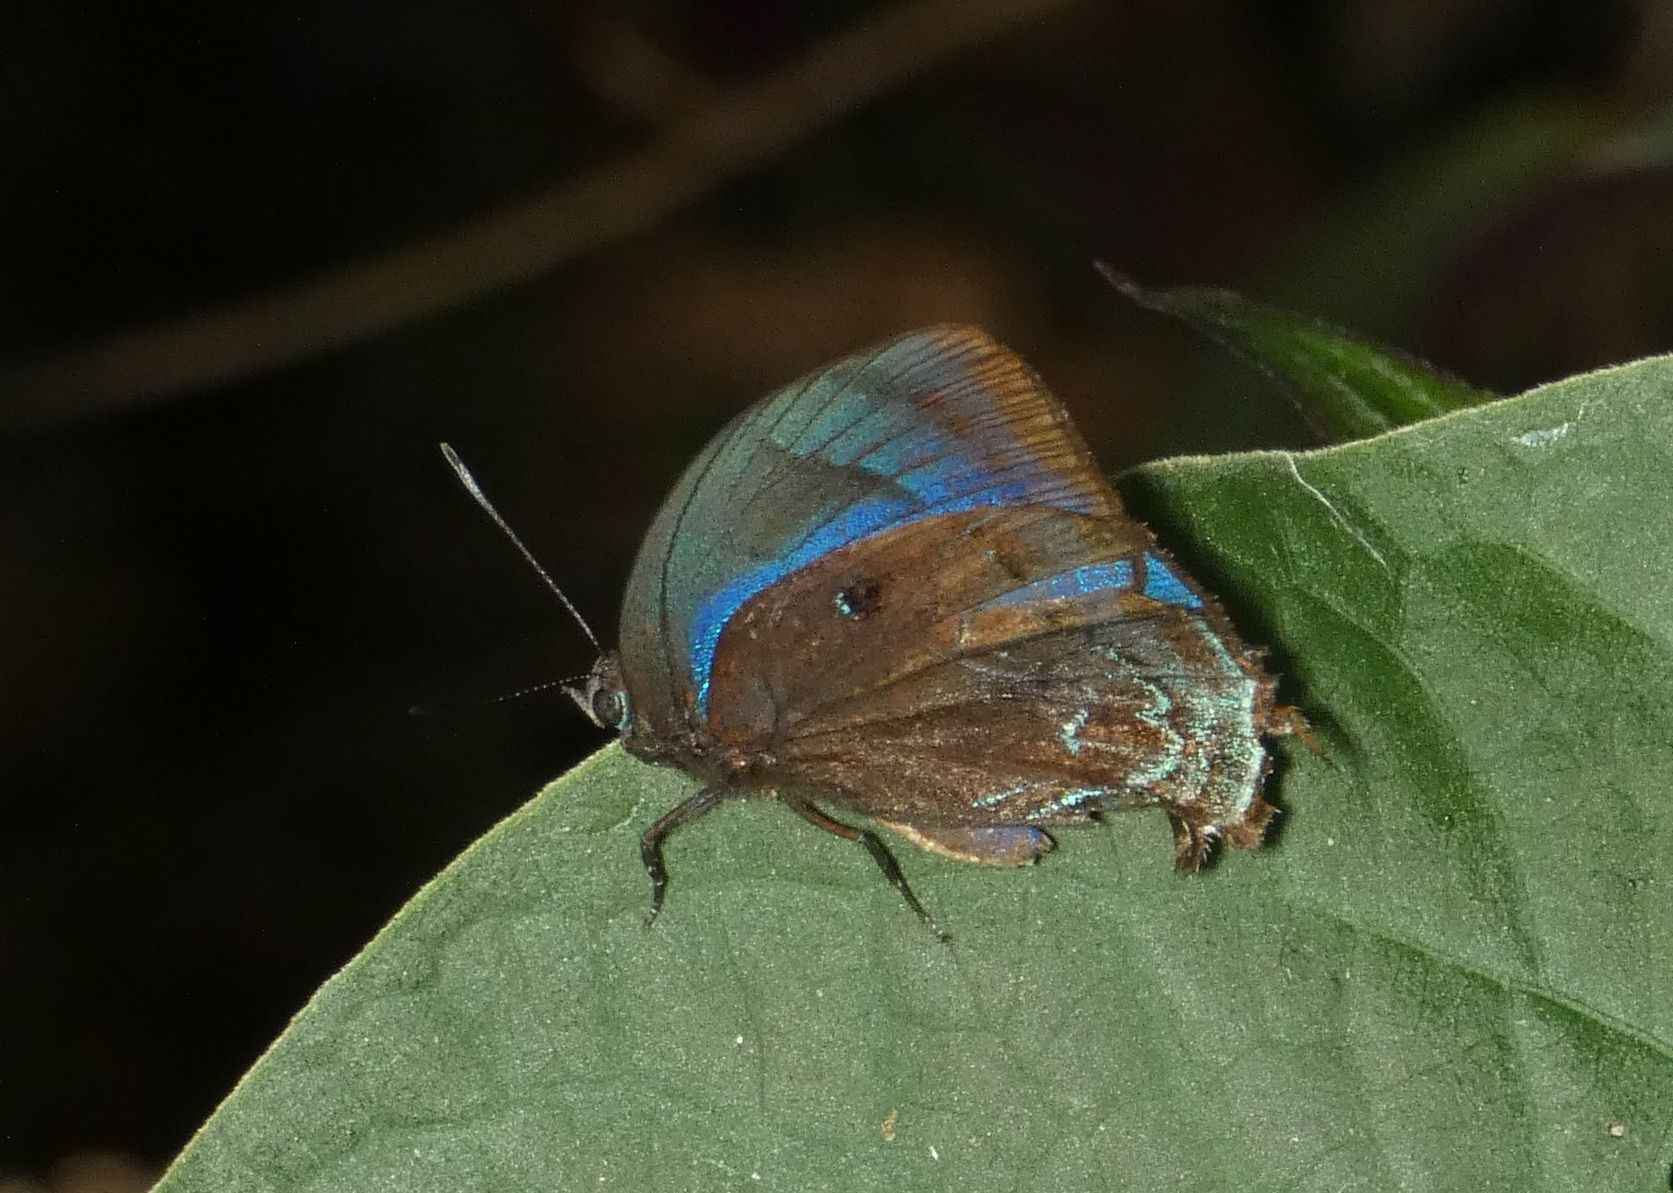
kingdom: Animalia
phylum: Arthropoda
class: Insecta
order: Lepidoptera
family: Lycaenidae
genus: Denivia
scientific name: Denivia hemon
